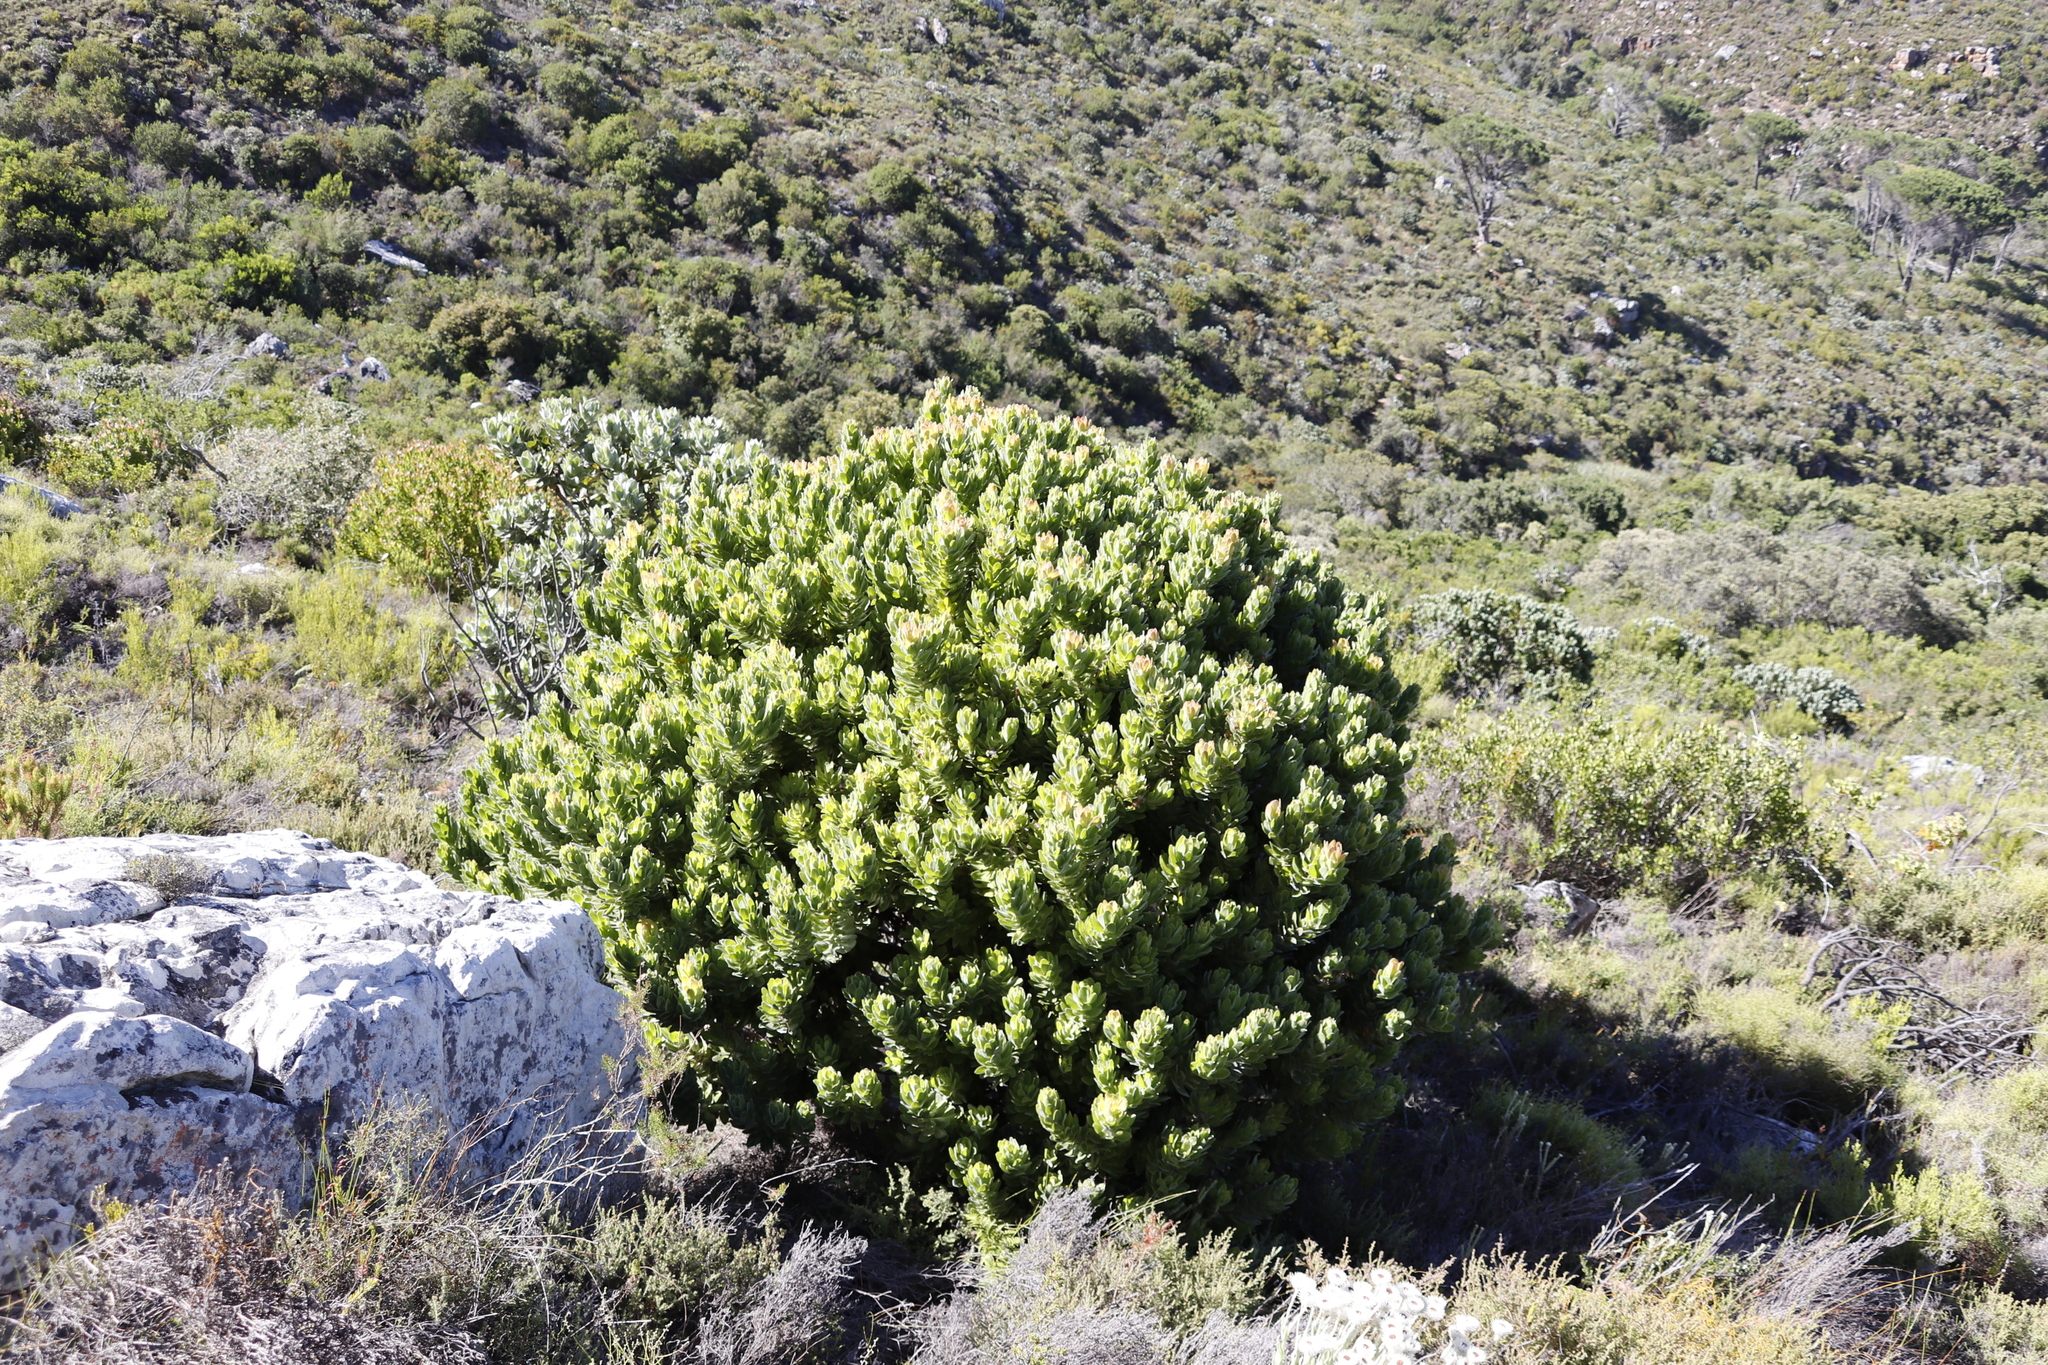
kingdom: Plantae
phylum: Tracheophyta
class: Magnoliopsida
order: Proteales
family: Proteaceae
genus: Mimetes
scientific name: Mimetes fimbriifolius
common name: Fringed bottlebrush
